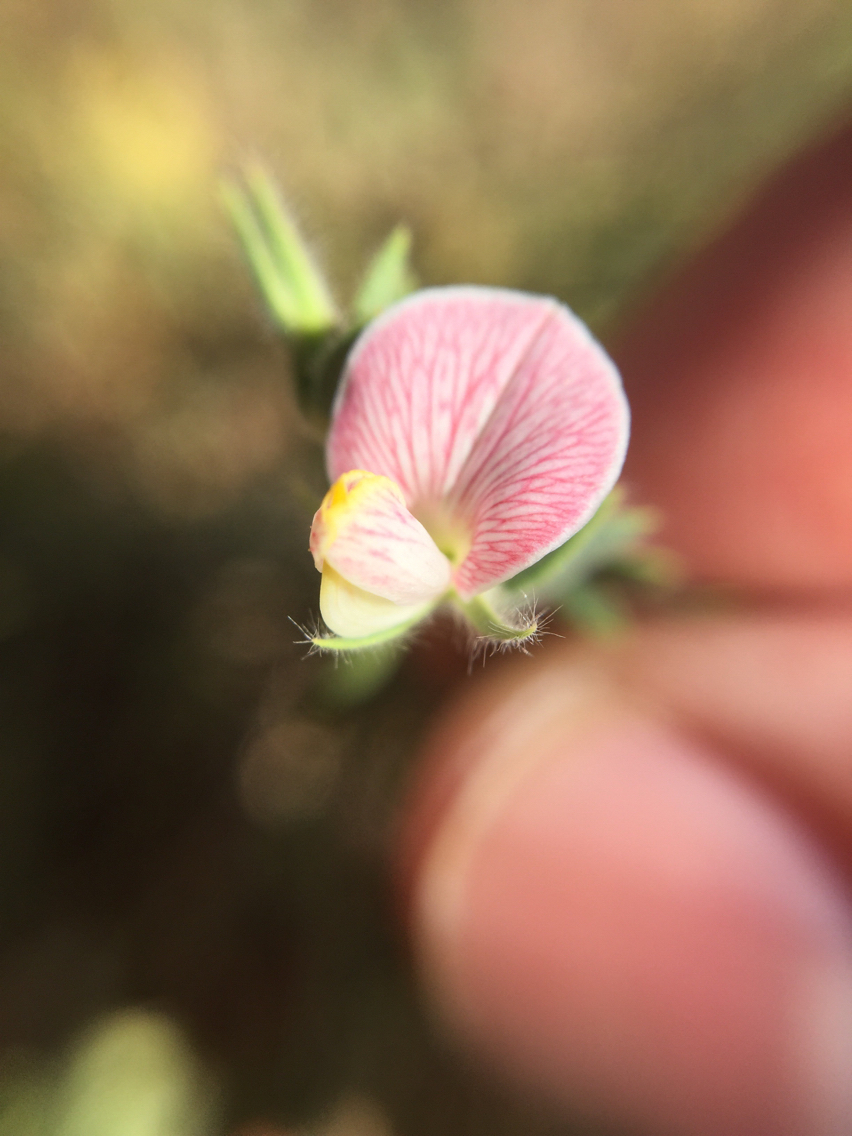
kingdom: Plantae
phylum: Tracheophyta
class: Magnoliopsida
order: Fabales
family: Fabaceae
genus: Acmispon
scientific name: Acmispon americanus
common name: American bird's-foot trefoil
